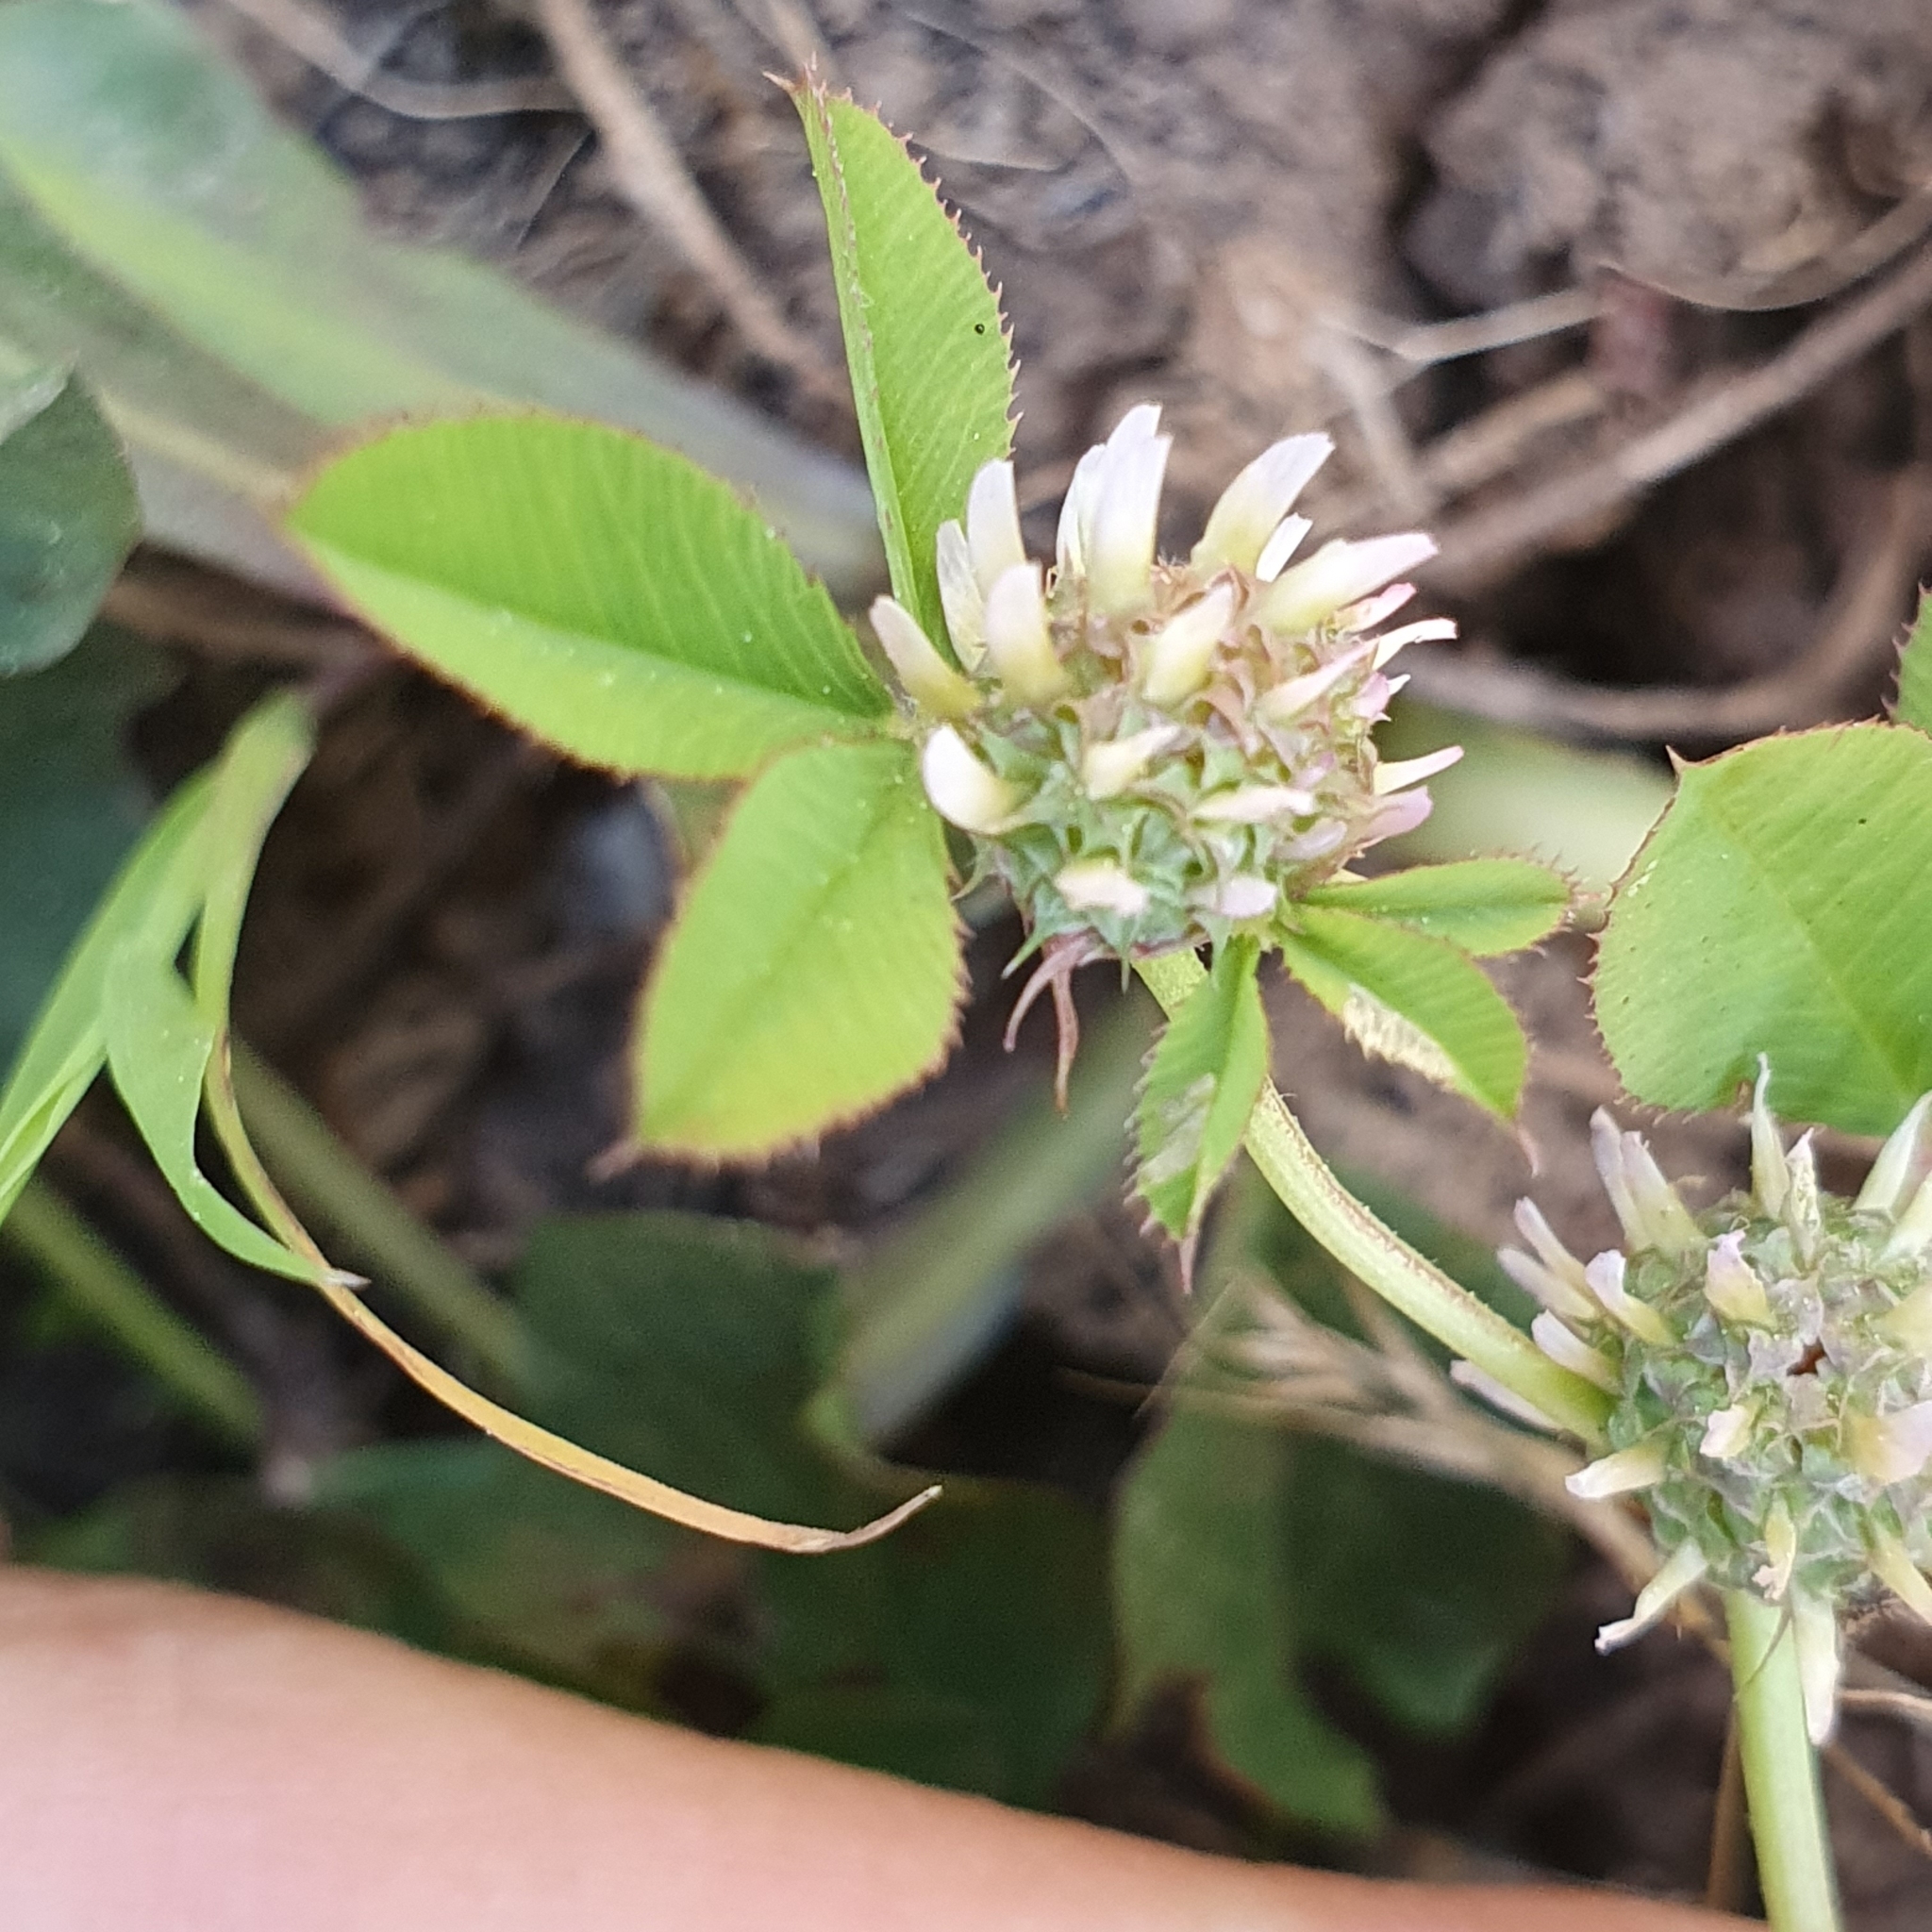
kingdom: Plantae
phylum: Tracheophyta
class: Magnoliopsida
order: Fabales
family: Fabaceae
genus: Trifolium
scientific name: Trifolium glomeratum
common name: Clustered clover
